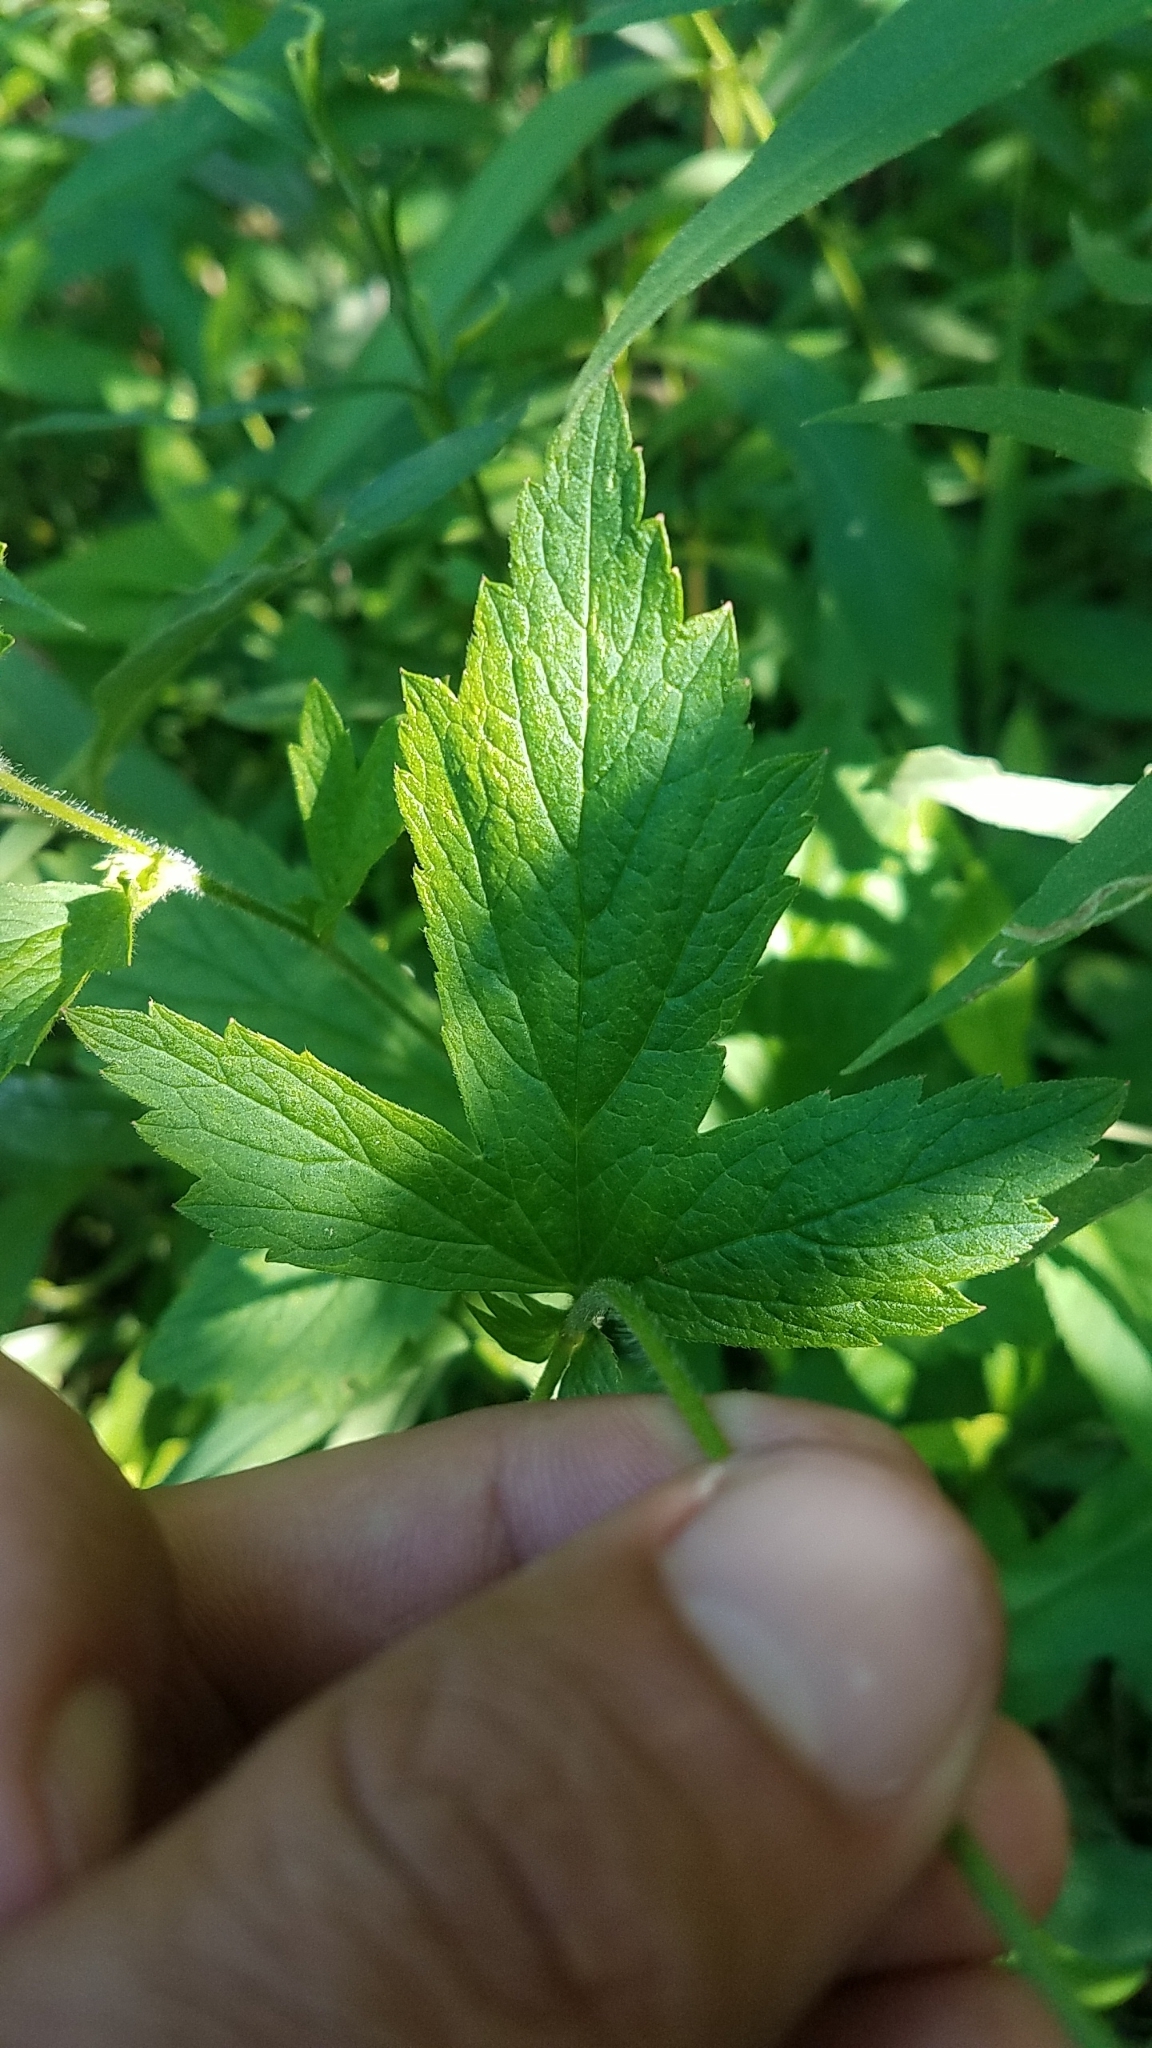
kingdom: Plantae
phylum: Tracheophyta
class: Magnoliopsida
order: Rosales
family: Rosaceae
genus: Geum
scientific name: Geum canadense
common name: White avens
